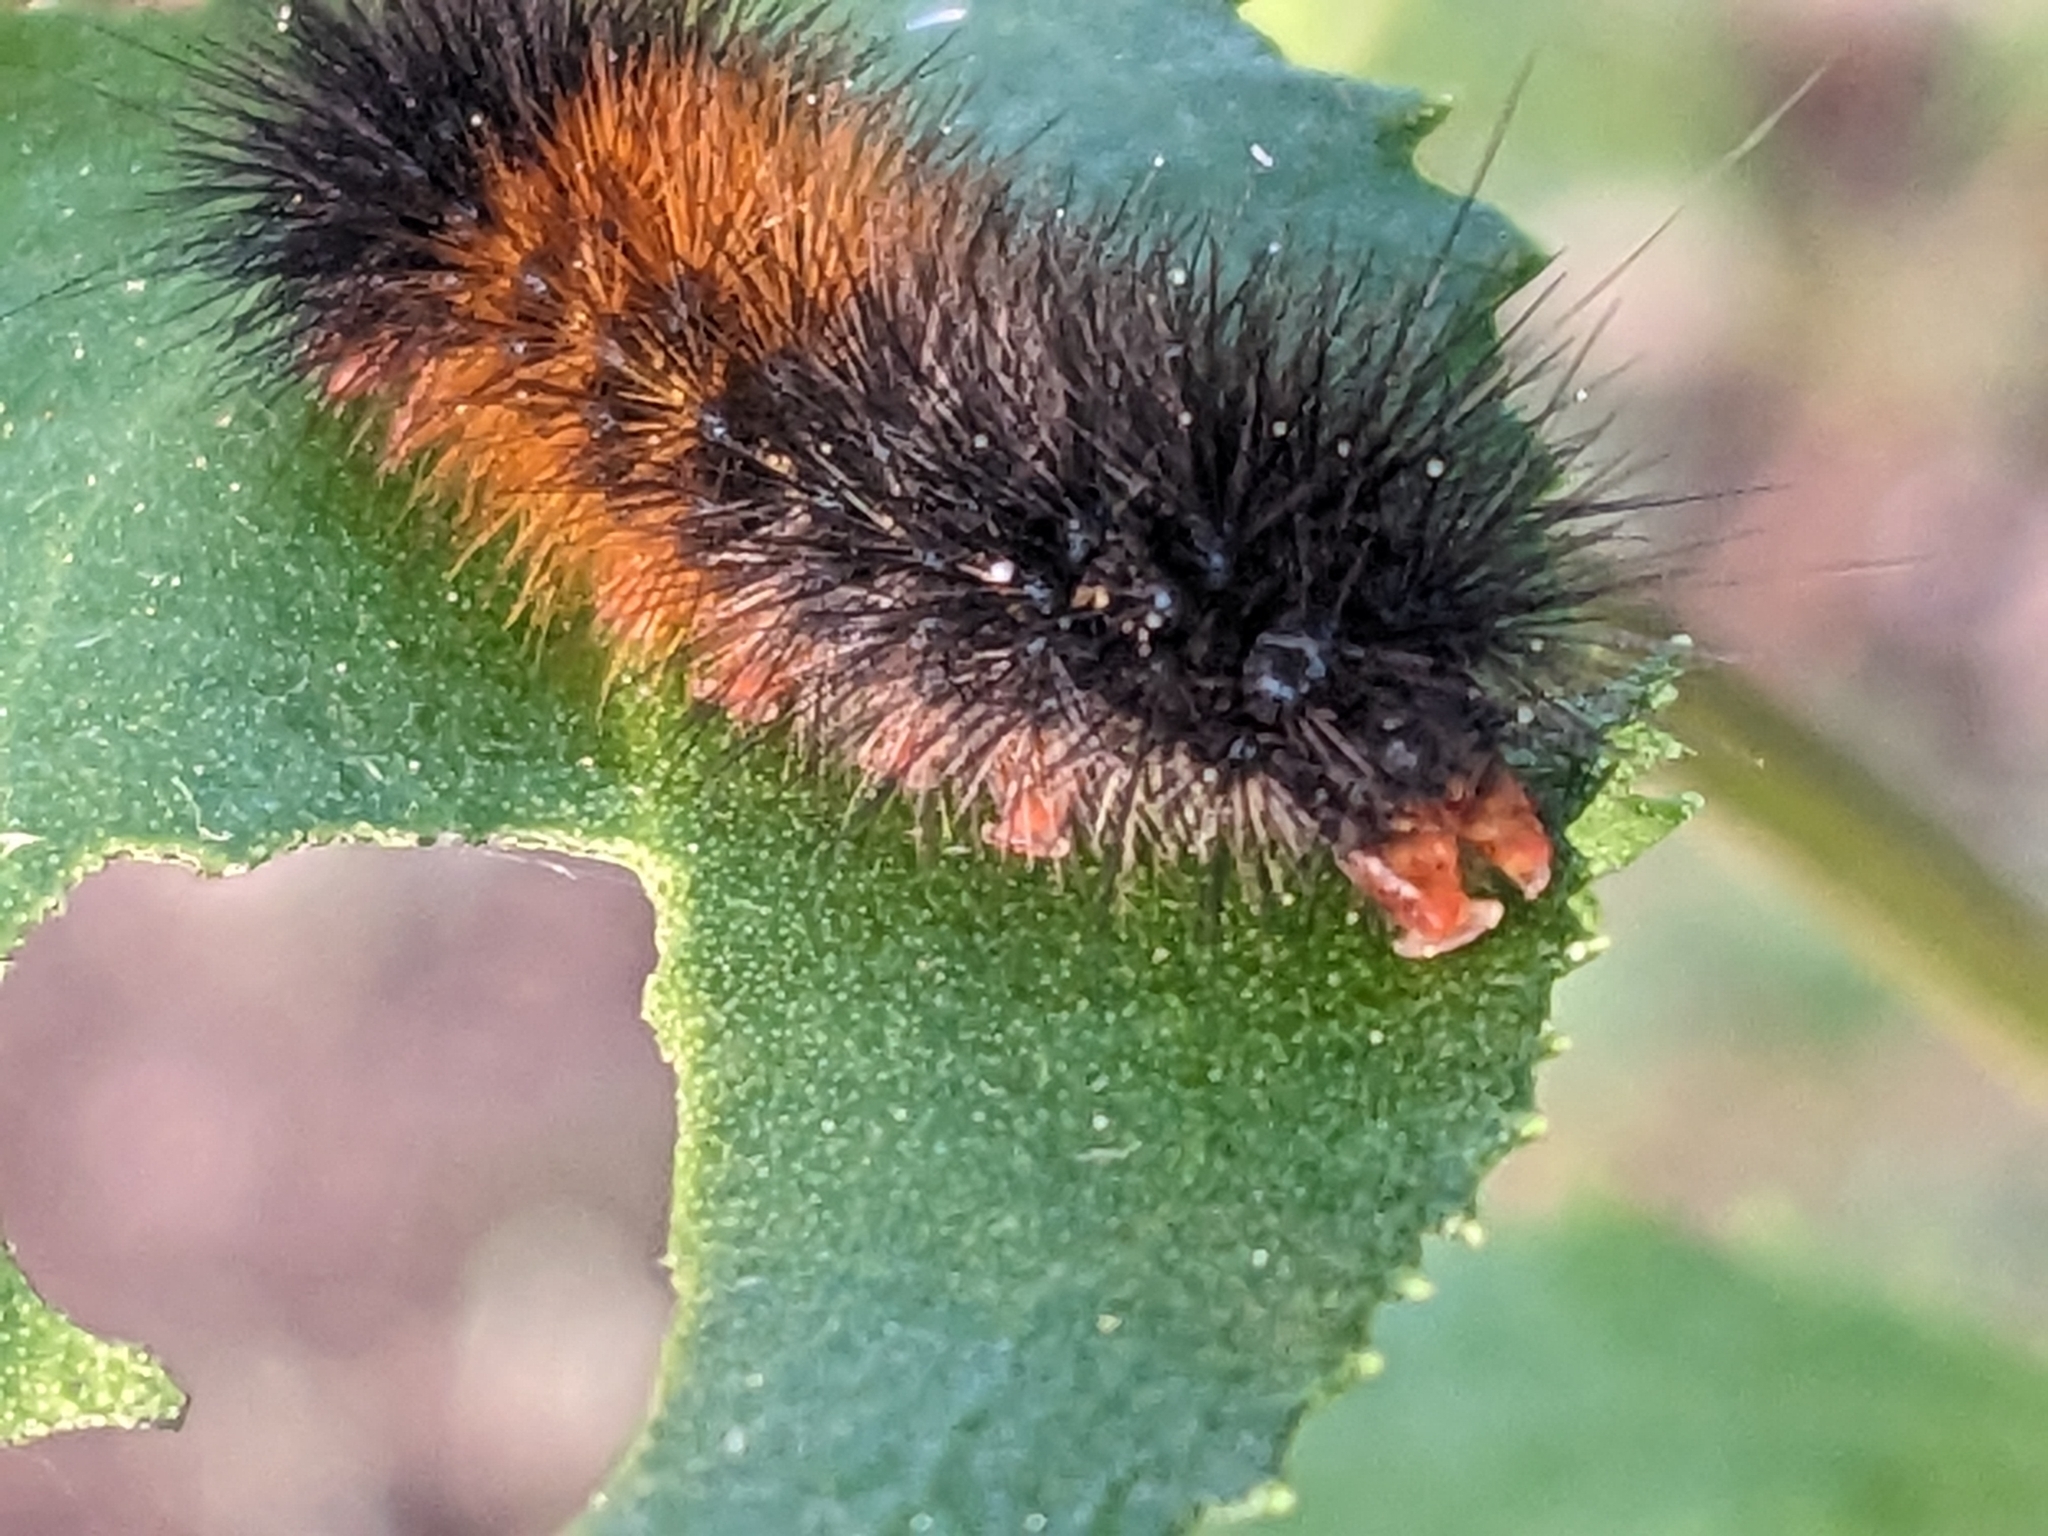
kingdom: Animalia
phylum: Arthropoda
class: Insecta
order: Lepidoptera
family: Erebidae
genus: Ardices
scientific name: Ardices glatignyi
